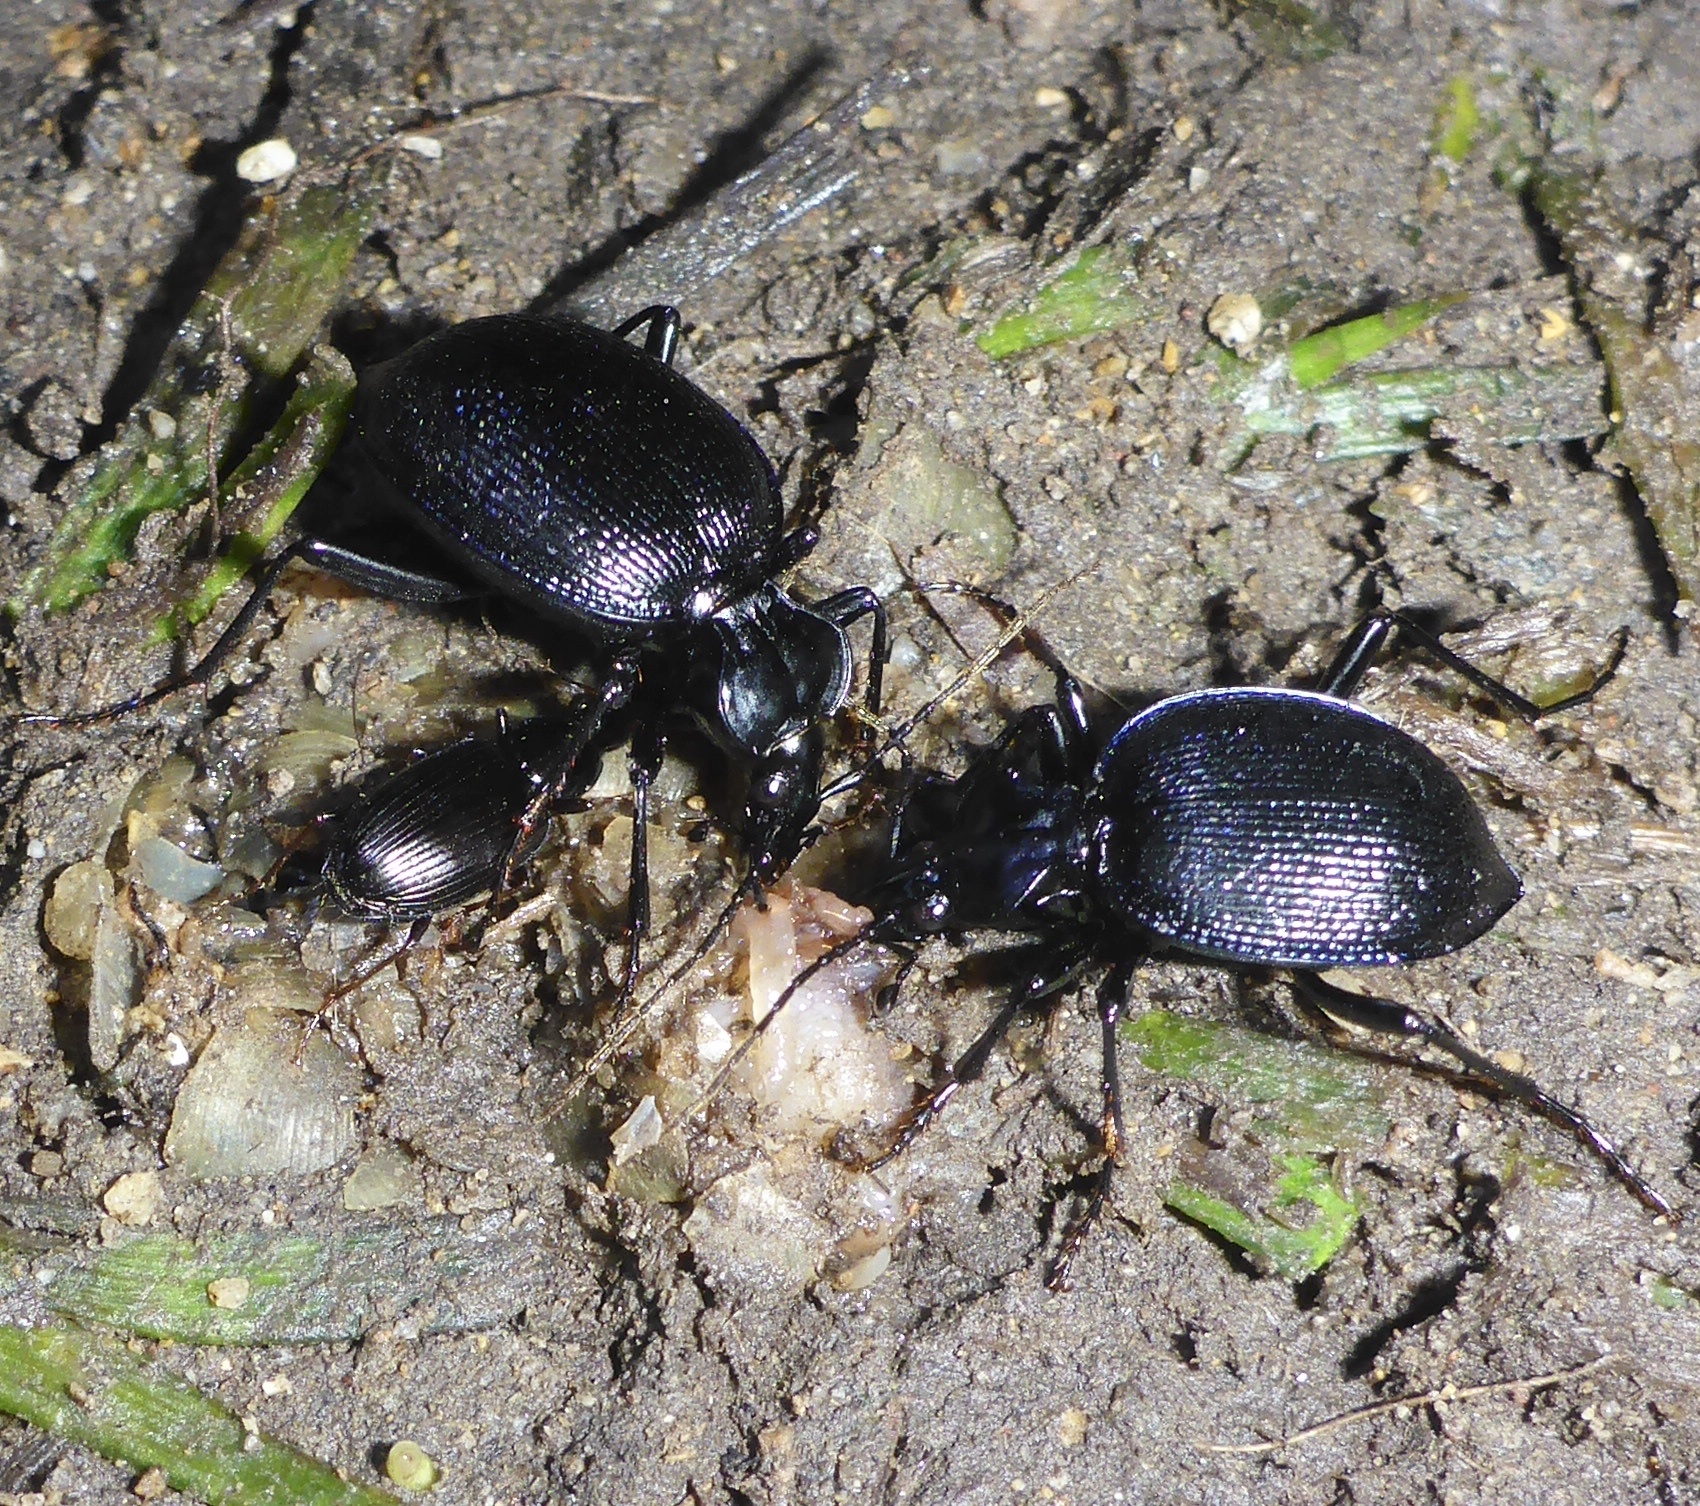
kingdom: Animalia
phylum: Arthropoda
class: Insecta
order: Coleoptera
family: Carabidae
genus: Scaphinotus
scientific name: Scaphinotus interruptus
